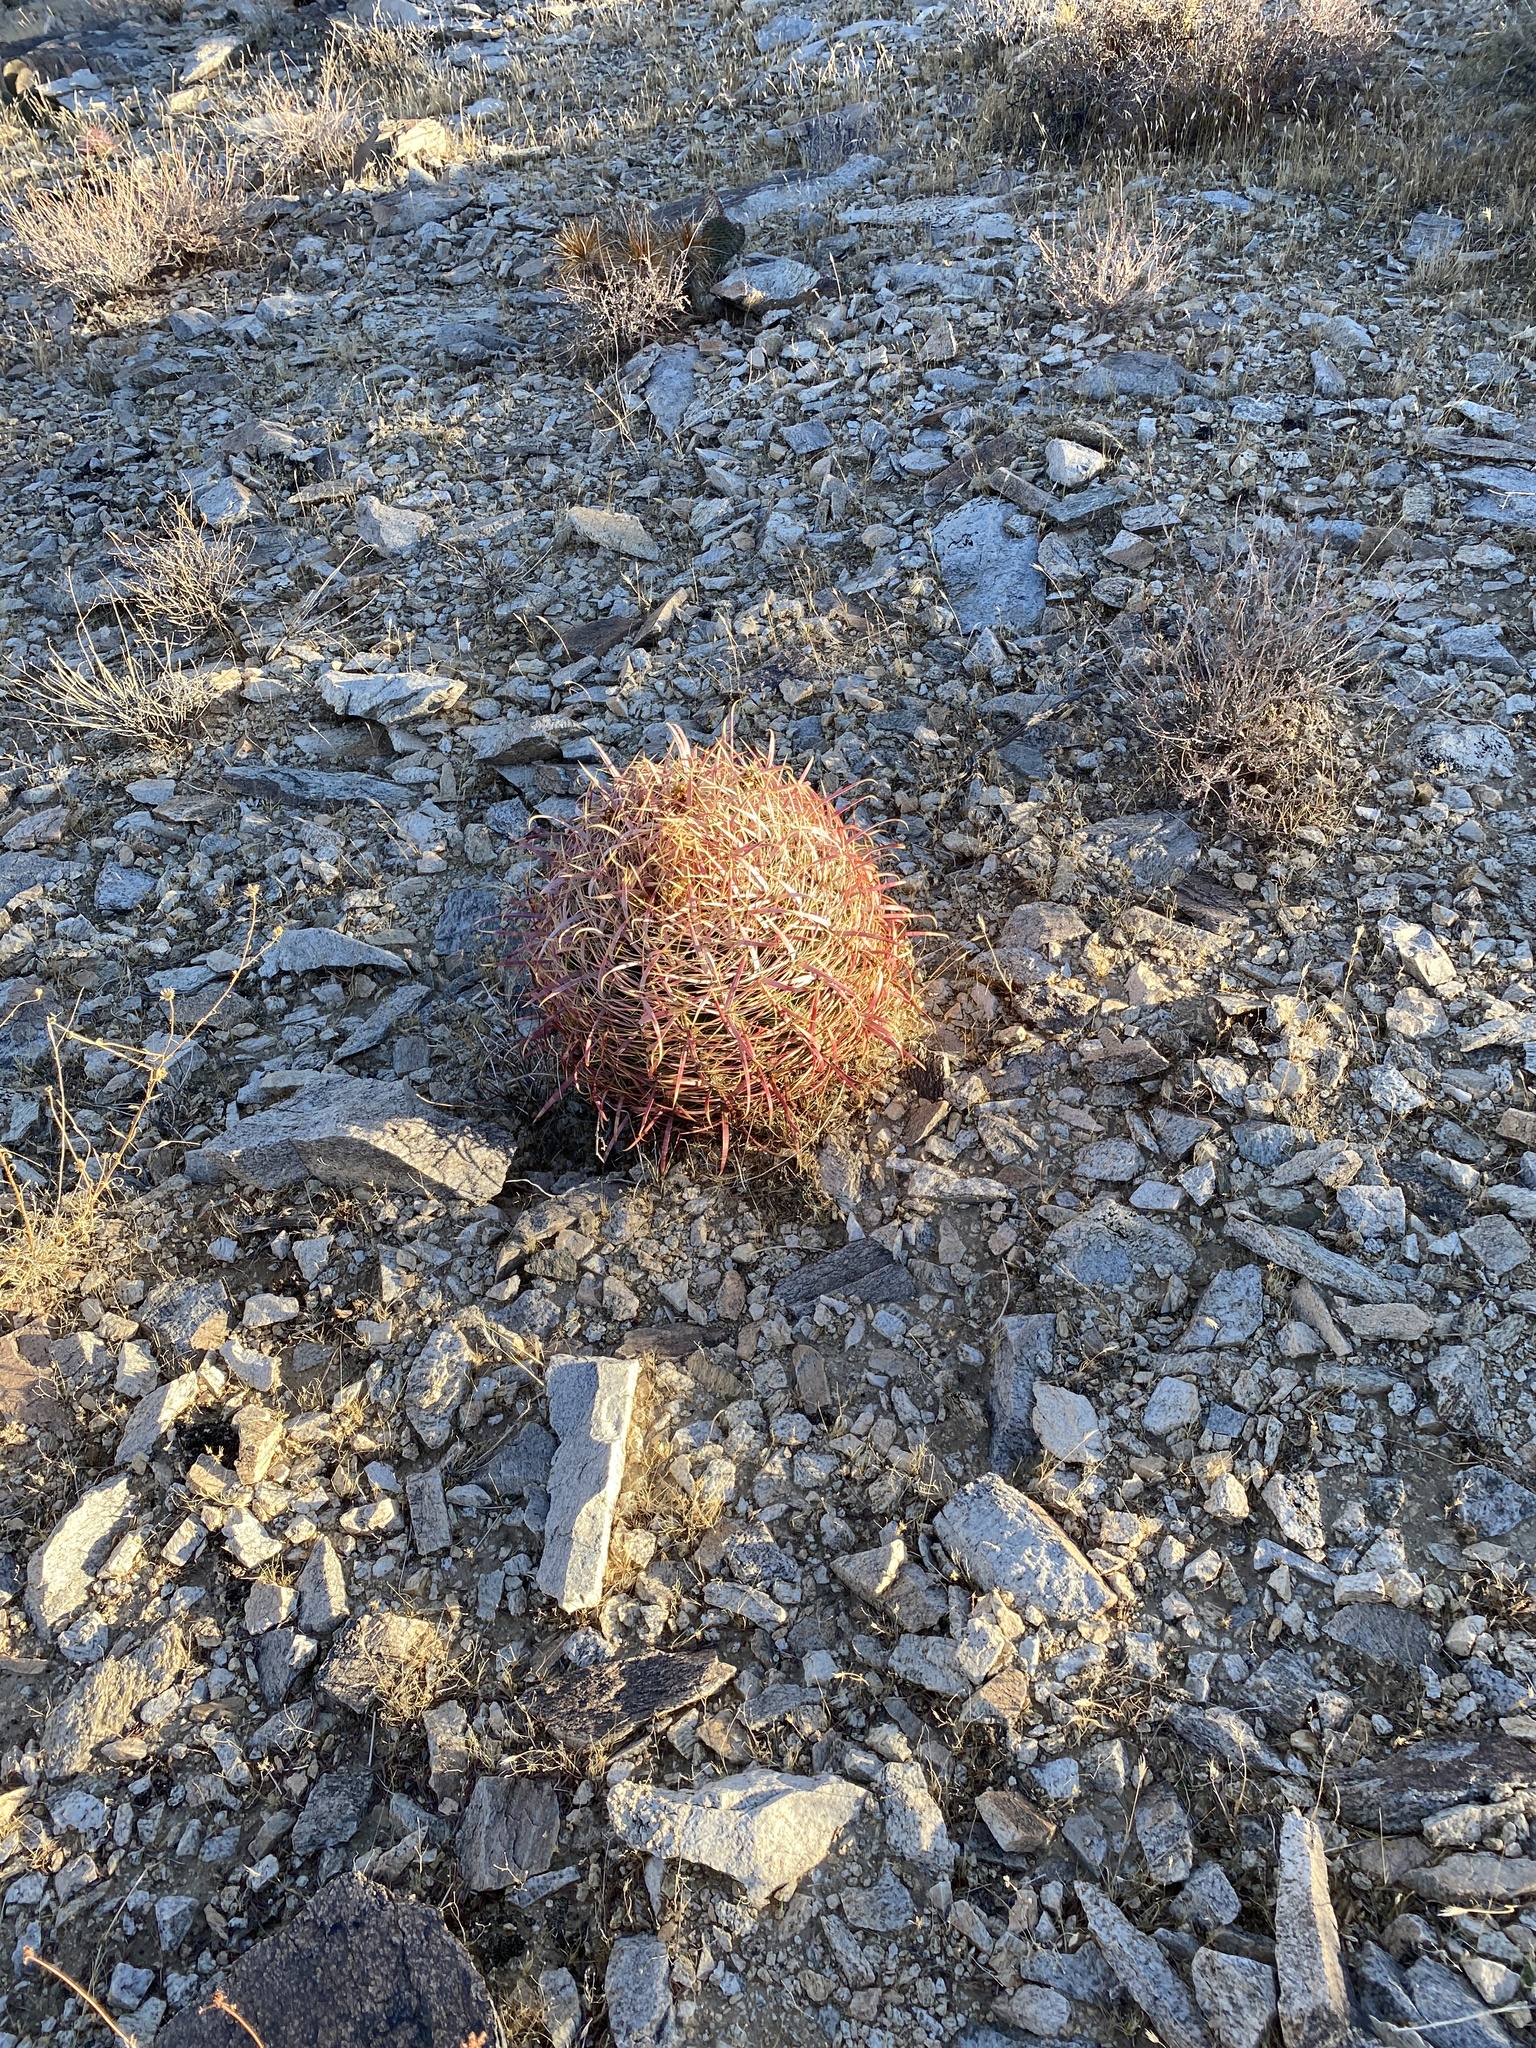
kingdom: Plantae
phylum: Tracheophyta
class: Magnoliopsida
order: Caryophyllales
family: Cactaceae
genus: Ferocactus
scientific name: Ferocactus cylindraceus
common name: California barrel cactus
